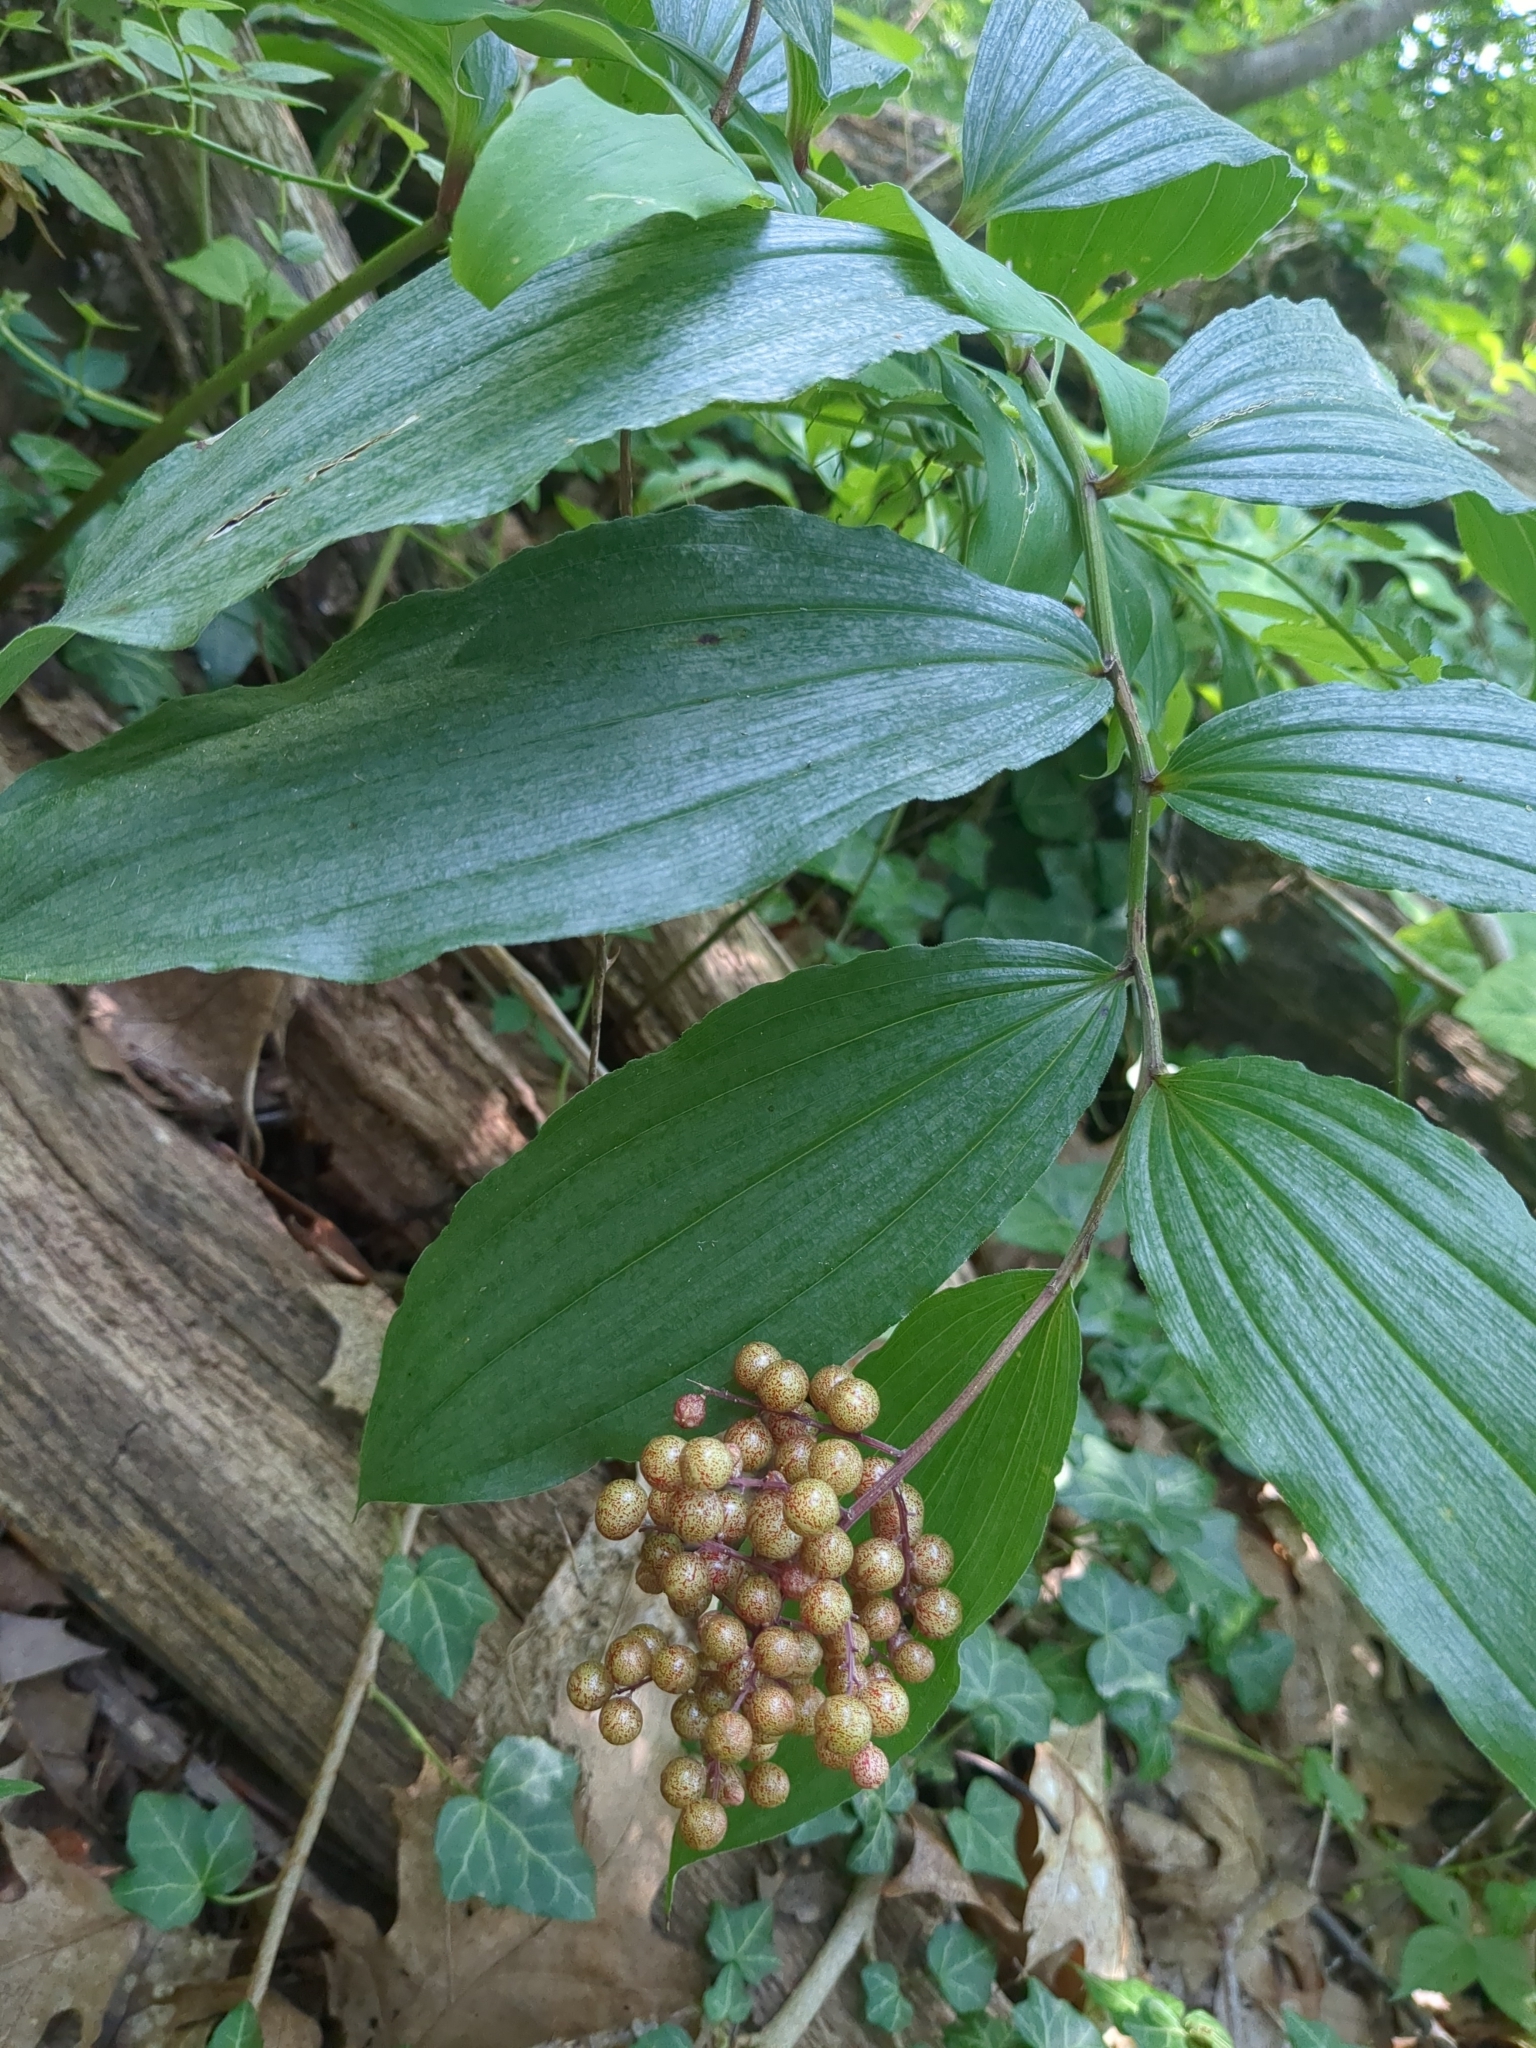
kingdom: Plantae
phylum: Tracheophyta
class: Liliopsida
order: Asparagales
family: Asparagaceae
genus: Maianthemum
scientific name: Maianthemum racemosum
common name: False spikenard
